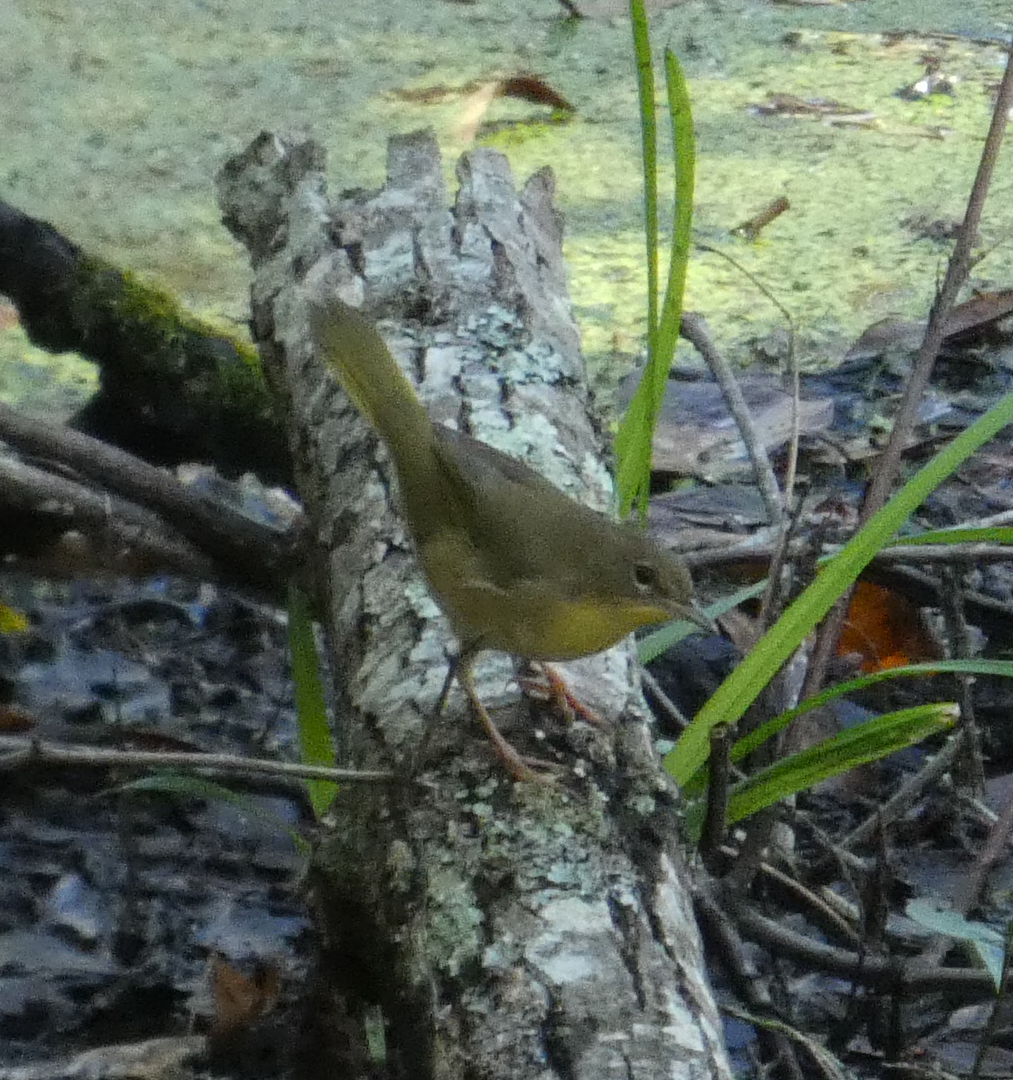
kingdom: Animalia
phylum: Chordata
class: Aves
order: Passeriformes
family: Parulidae
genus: Geothlypis
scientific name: Geothlypis trichas
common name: Common yellowthroat
